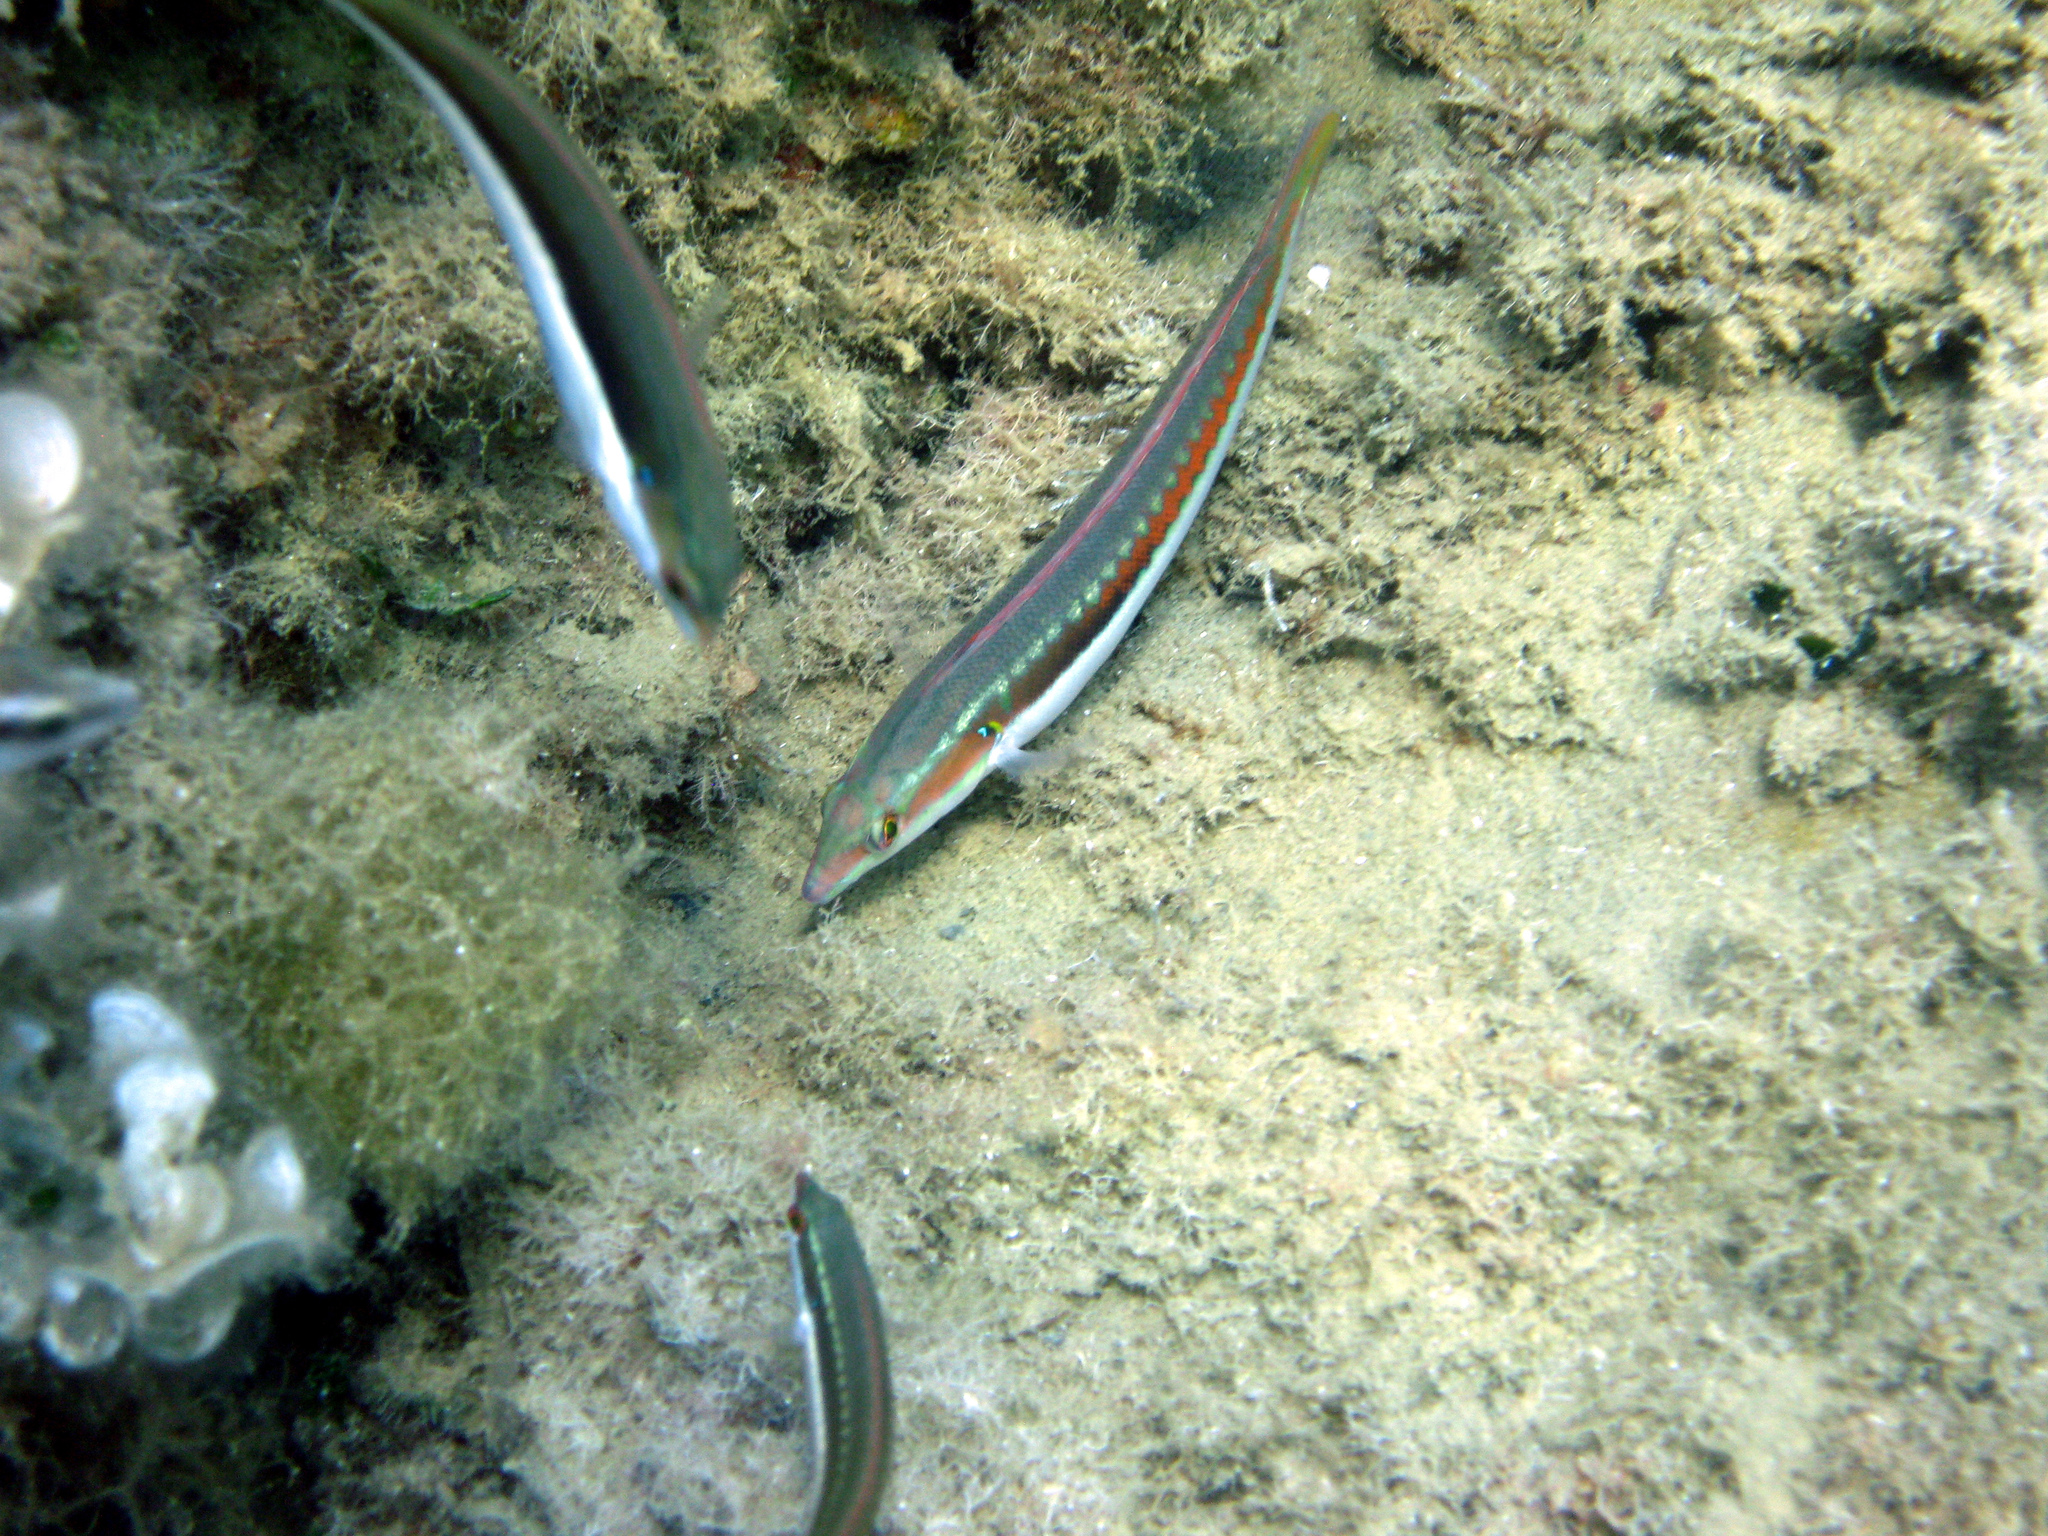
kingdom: Animalia
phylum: Chordata
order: Perciformes
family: Labridae
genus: Coris
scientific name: Coris julis
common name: Rainbow wrasse
